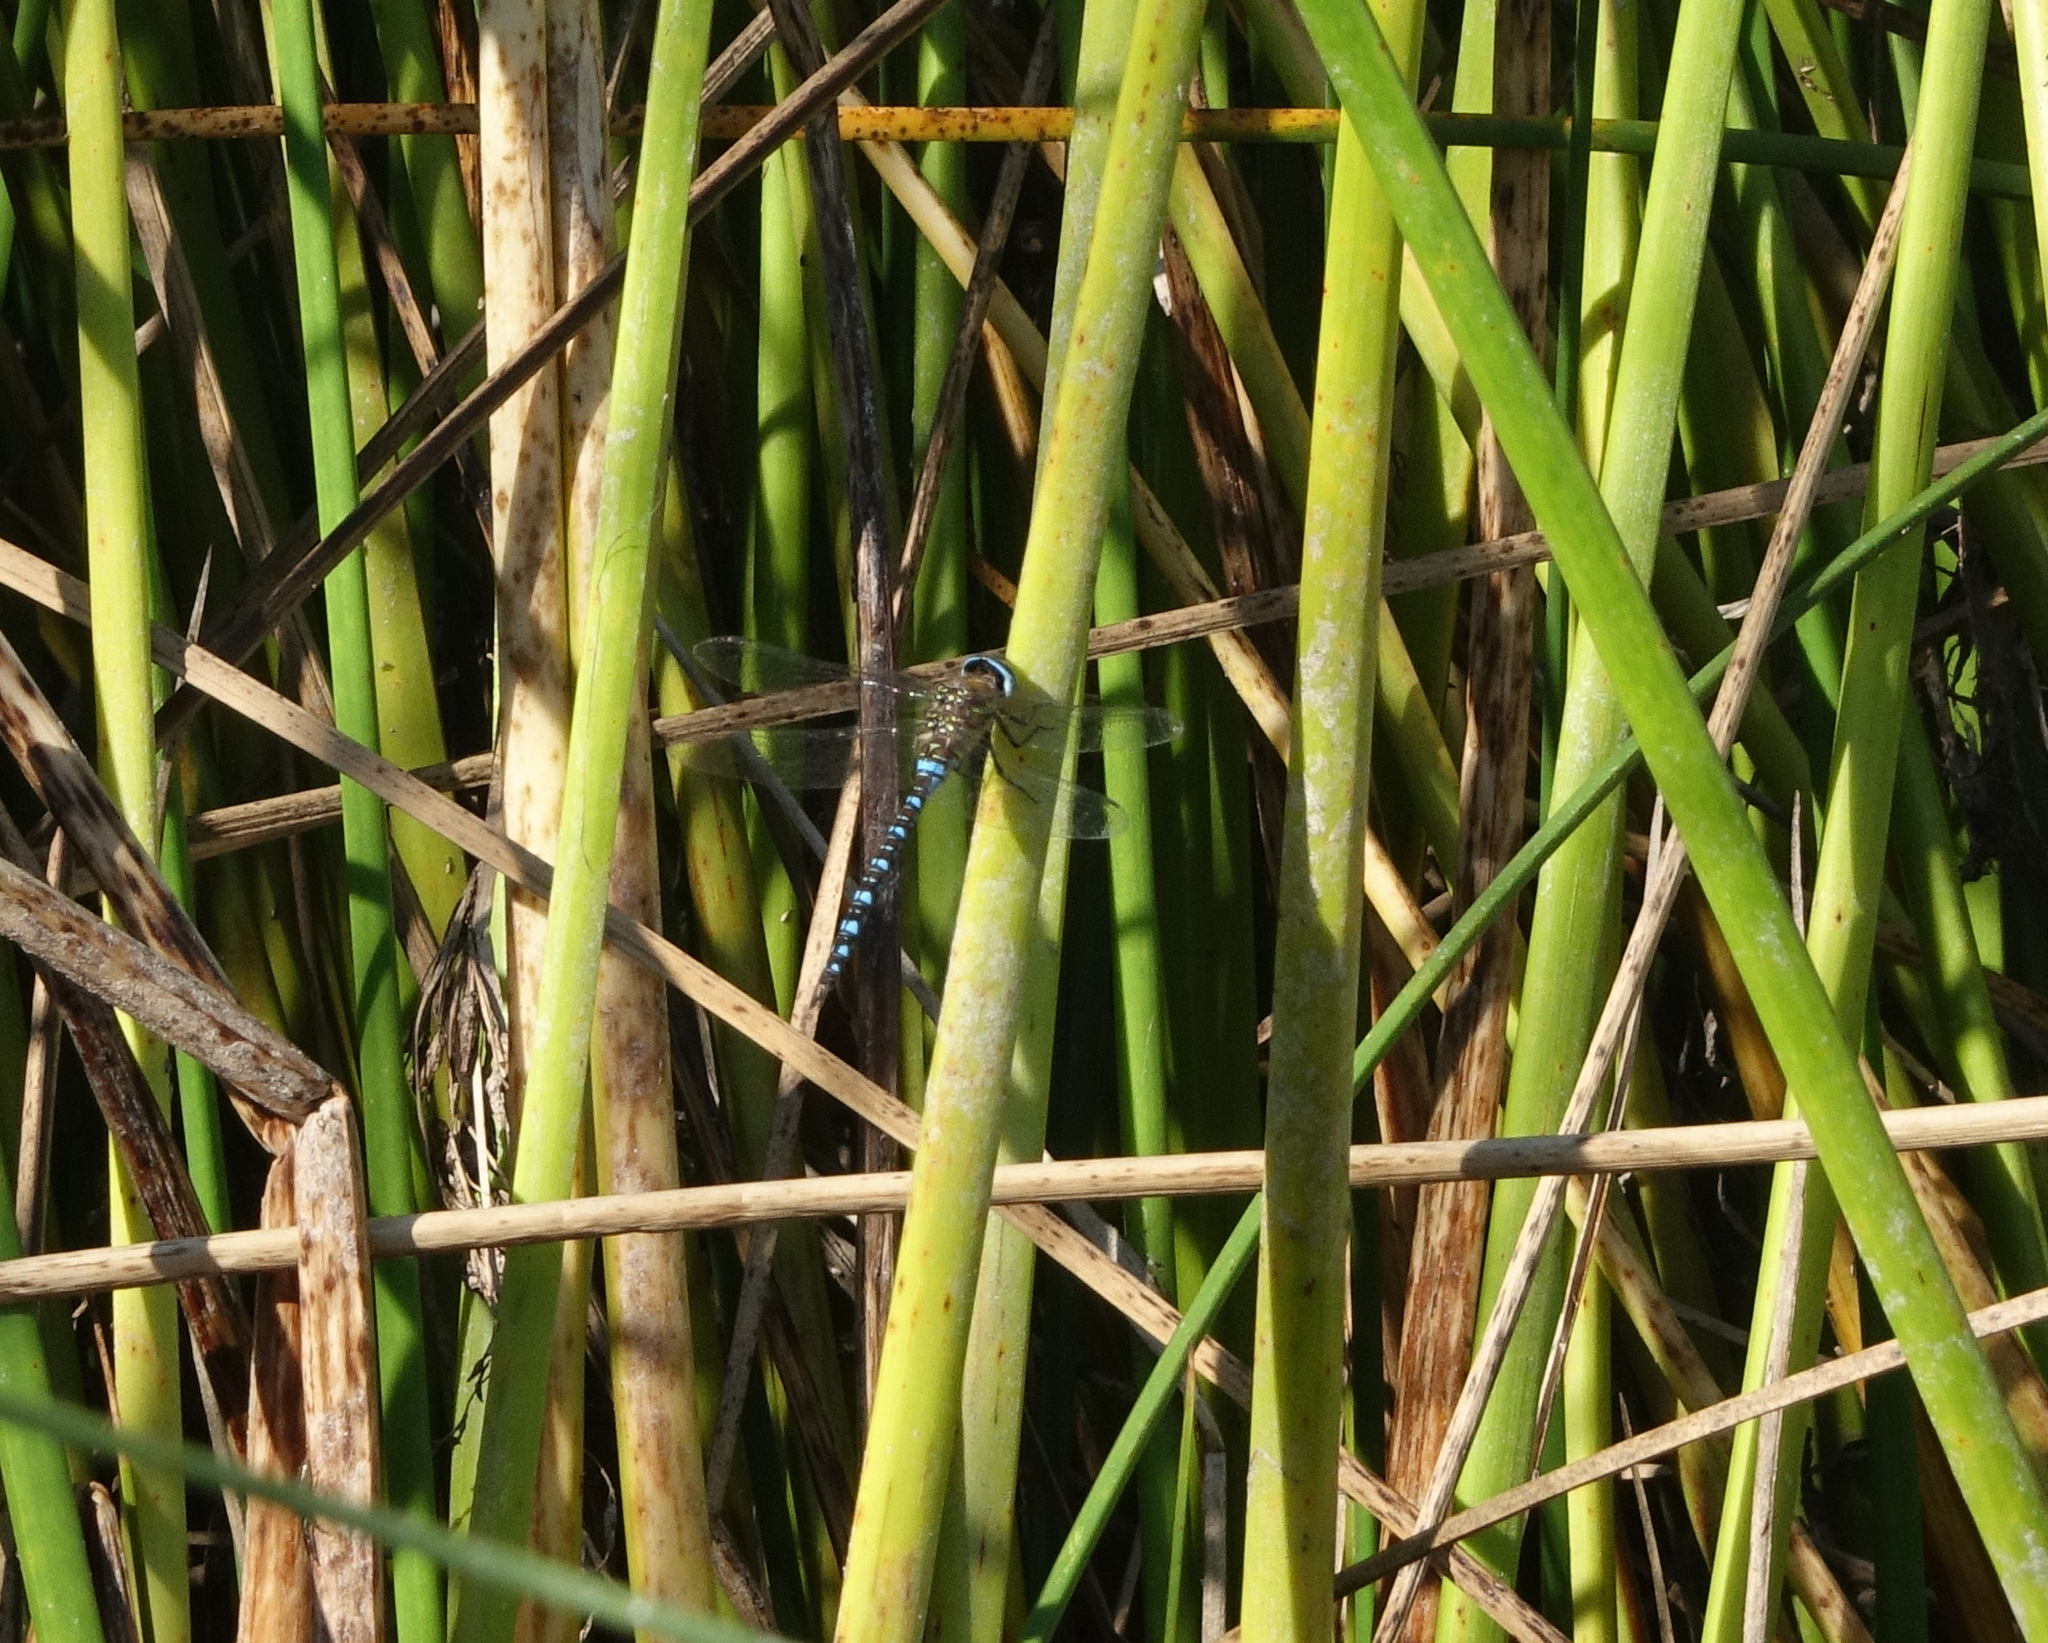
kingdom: Animalia
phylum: Arthropoda
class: Insecta
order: Odonata
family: Aeshnidae
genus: Aeshna
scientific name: Aeshna mixta
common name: Migrant hawker
